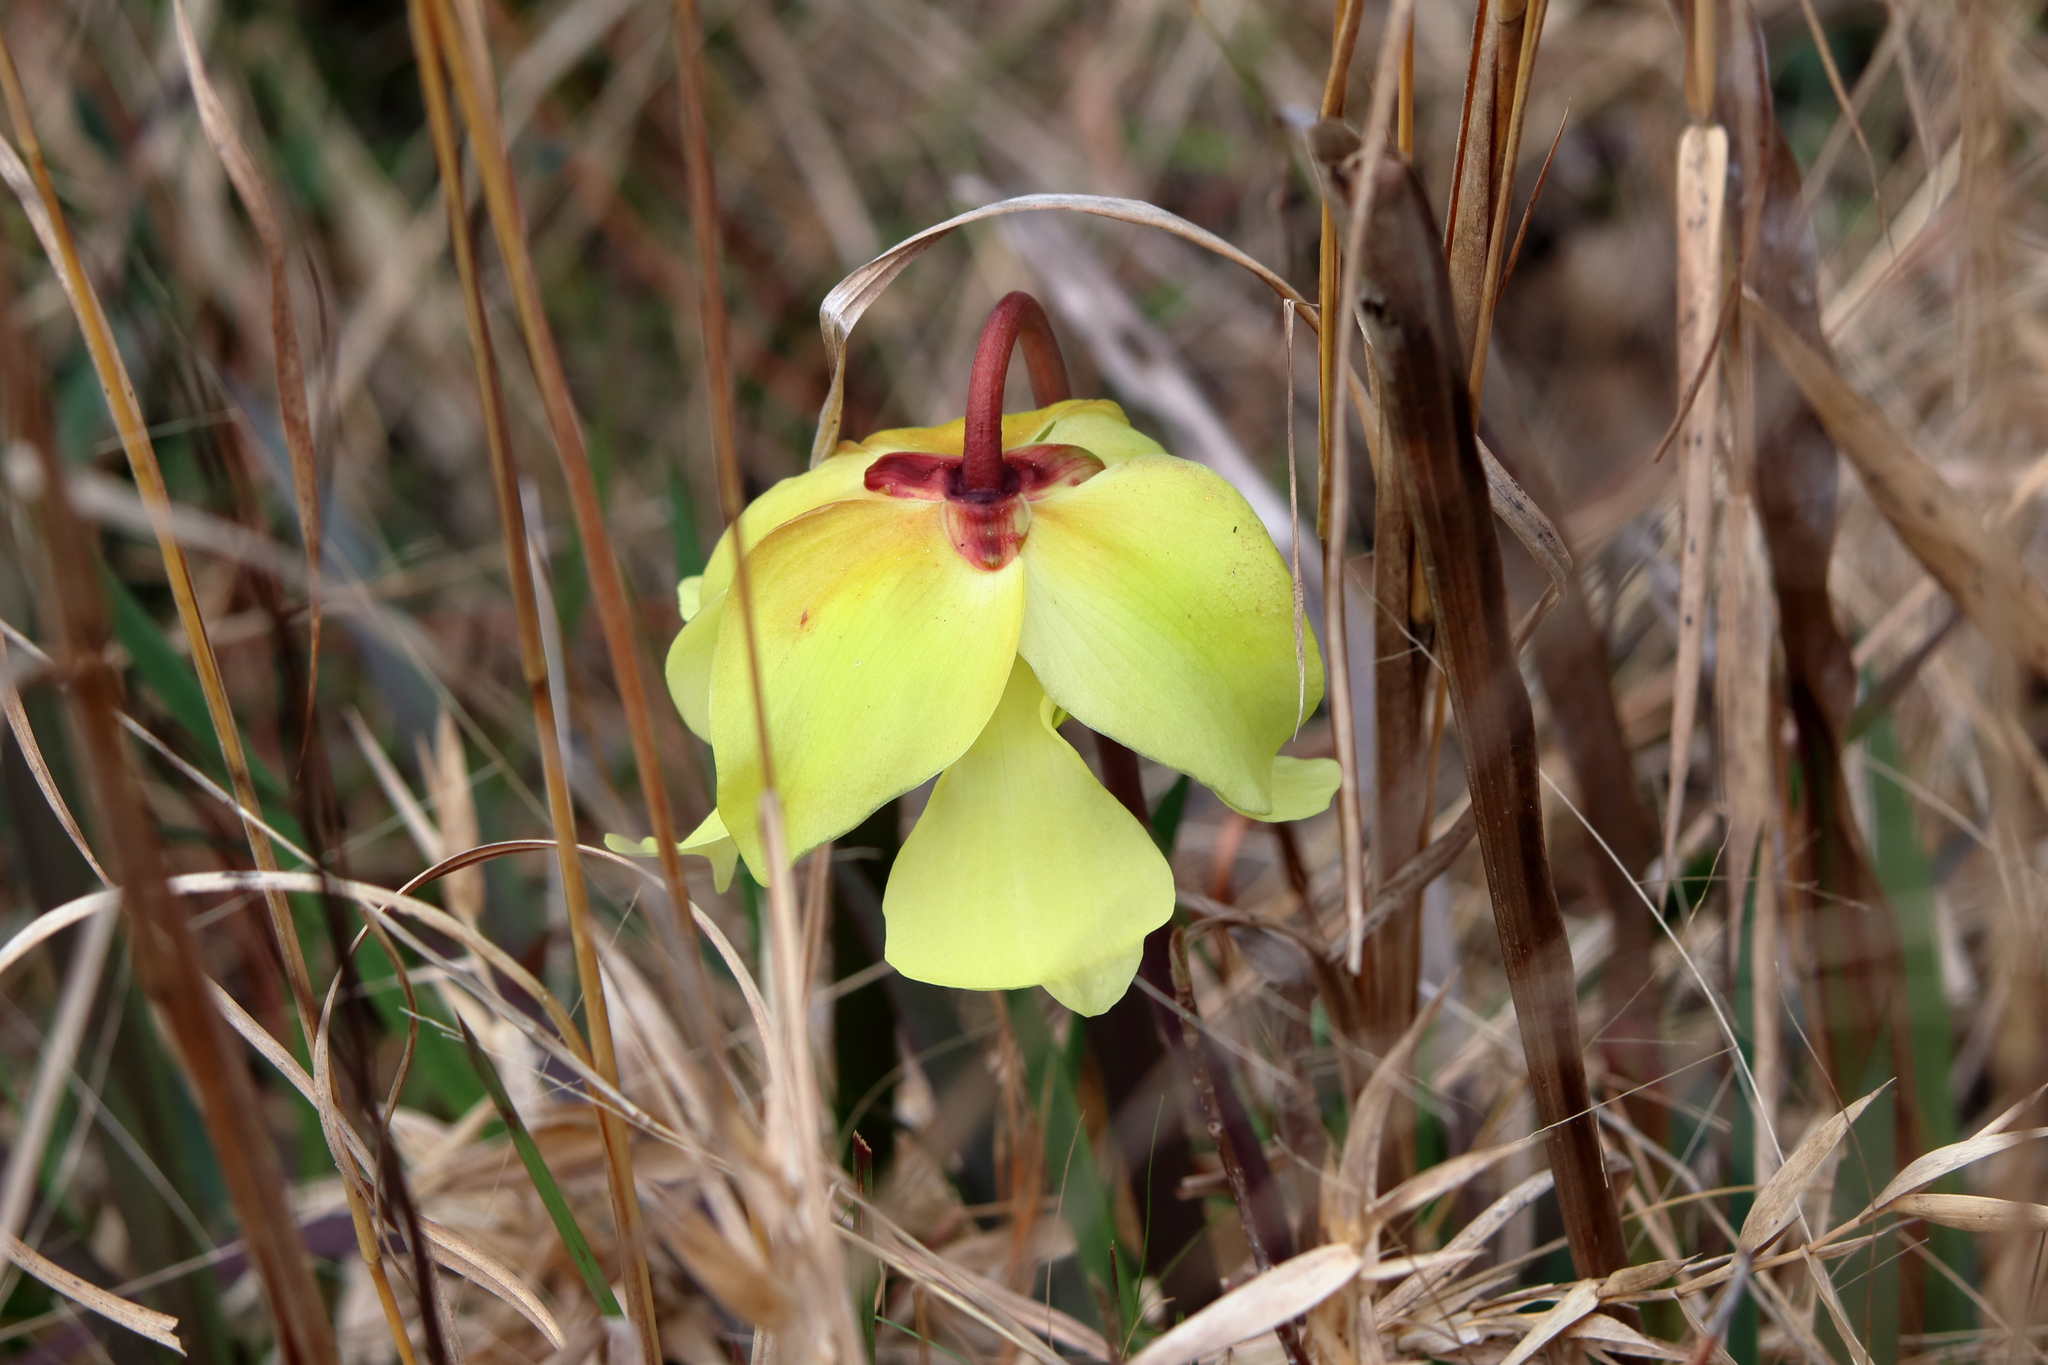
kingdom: Plantae
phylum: Tracheophyta
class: Magnoliopsida
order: Ericales
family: Sarraceniaceae
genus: Sarracenia
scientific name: Sarracenia alata
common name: Yellow trumpets
